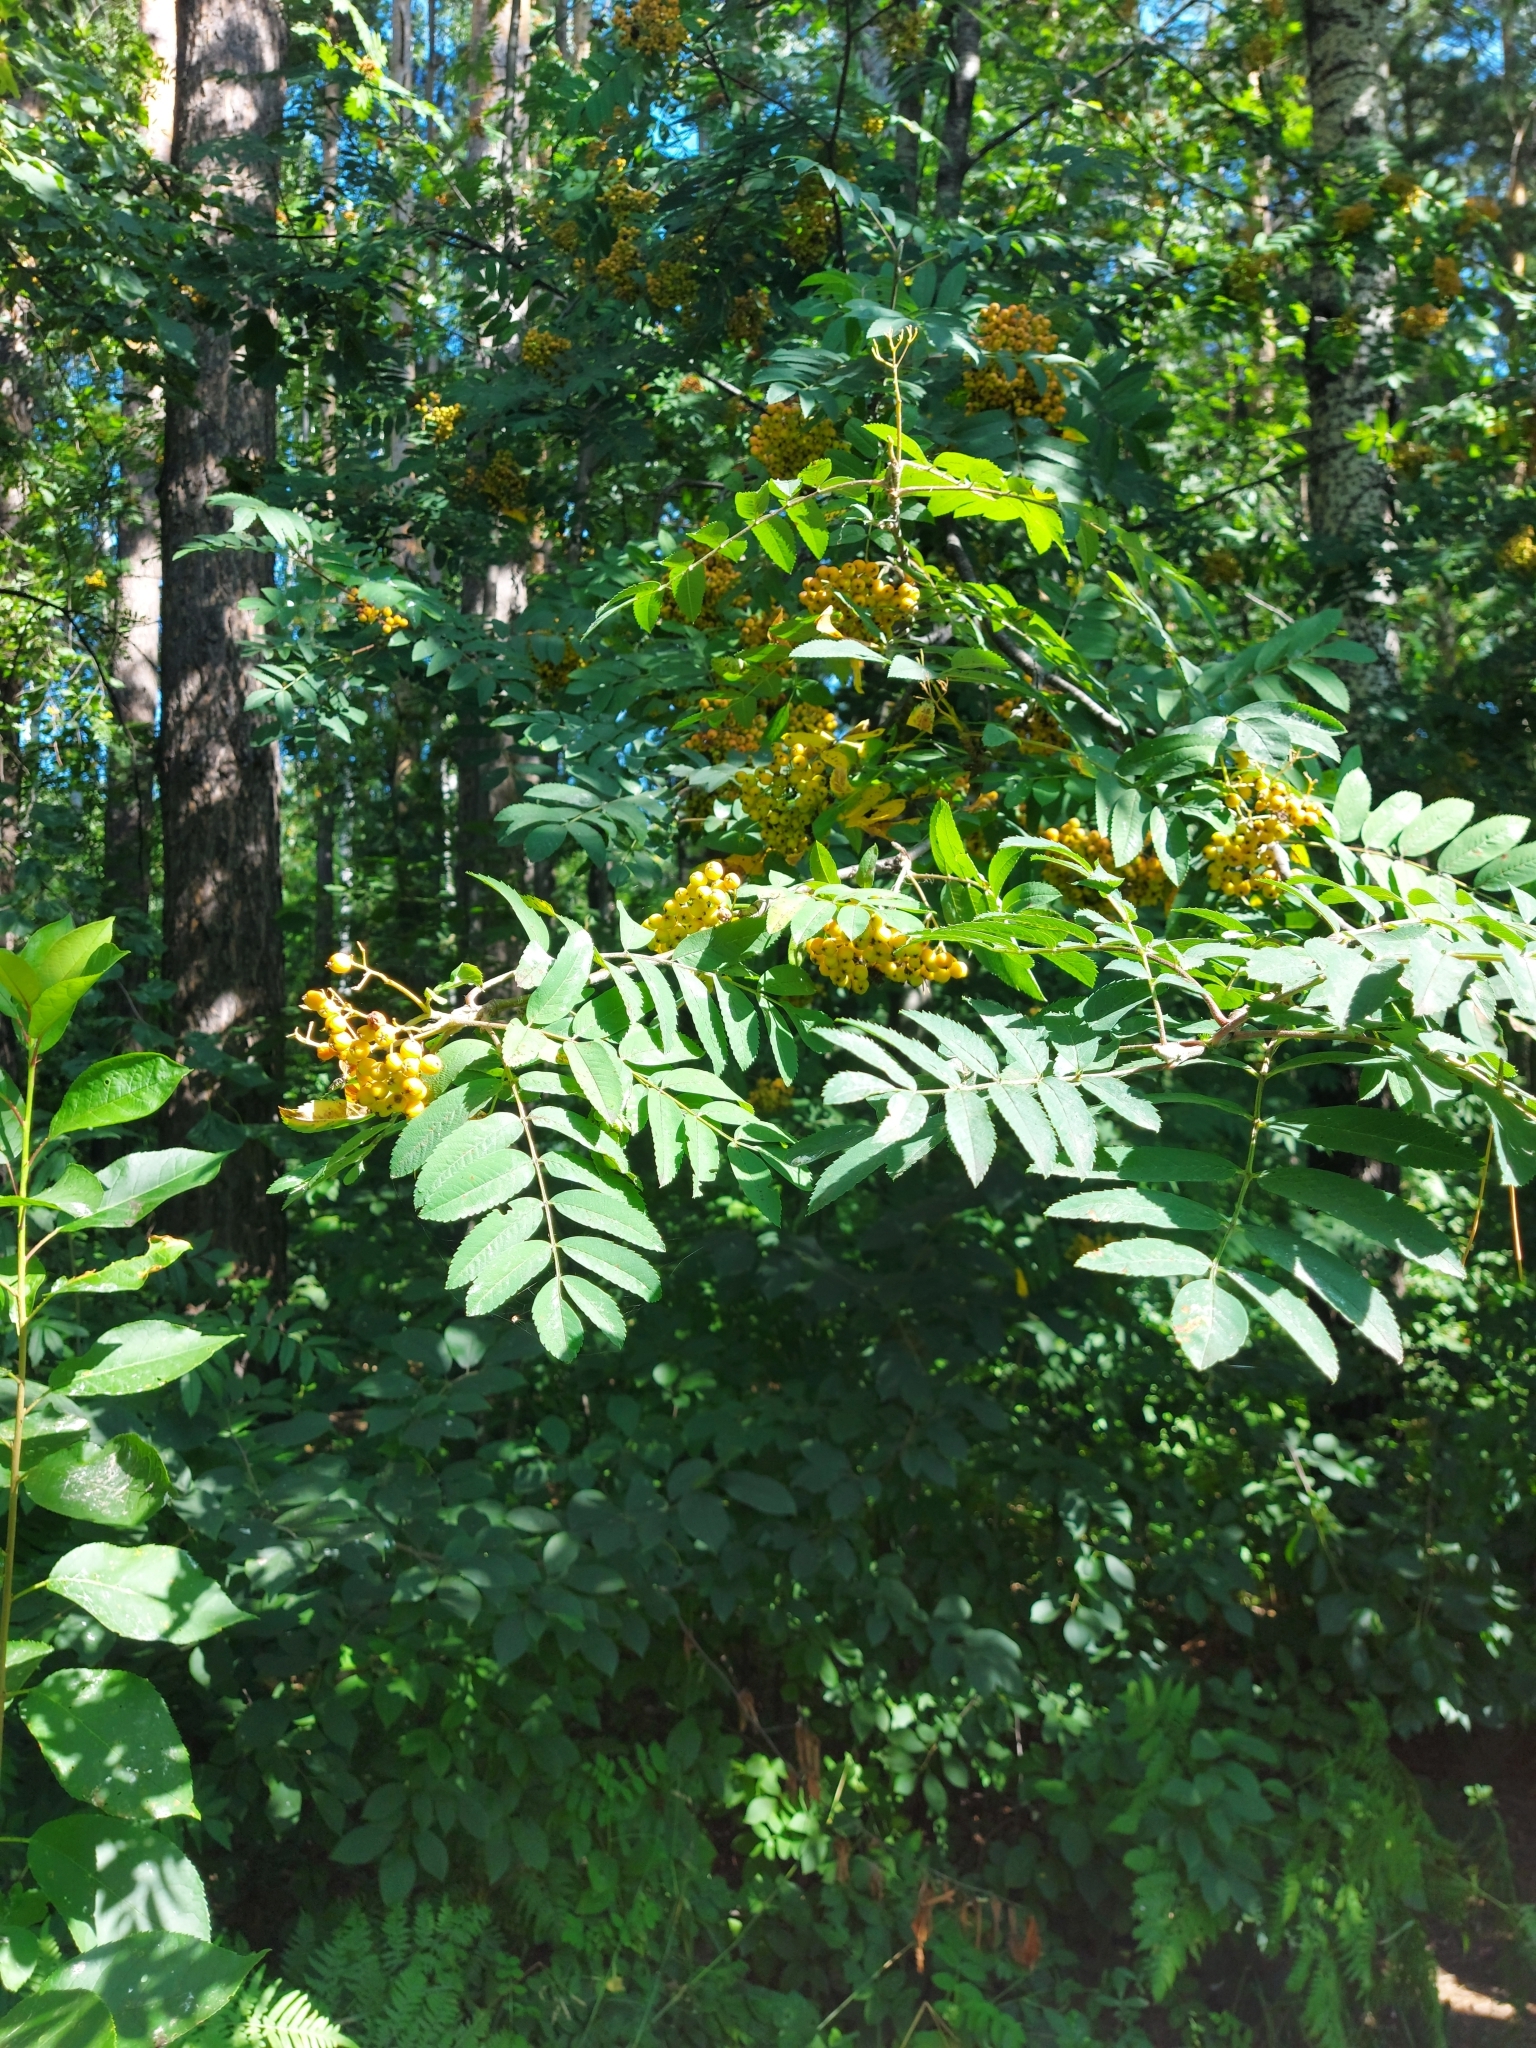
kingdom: Plantae
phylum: Tracheophyta
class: Magnoliopsida
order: Rosales
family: Rosaceae
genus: Sorbus
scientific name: Sorbus aucuparia
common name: Rowan
